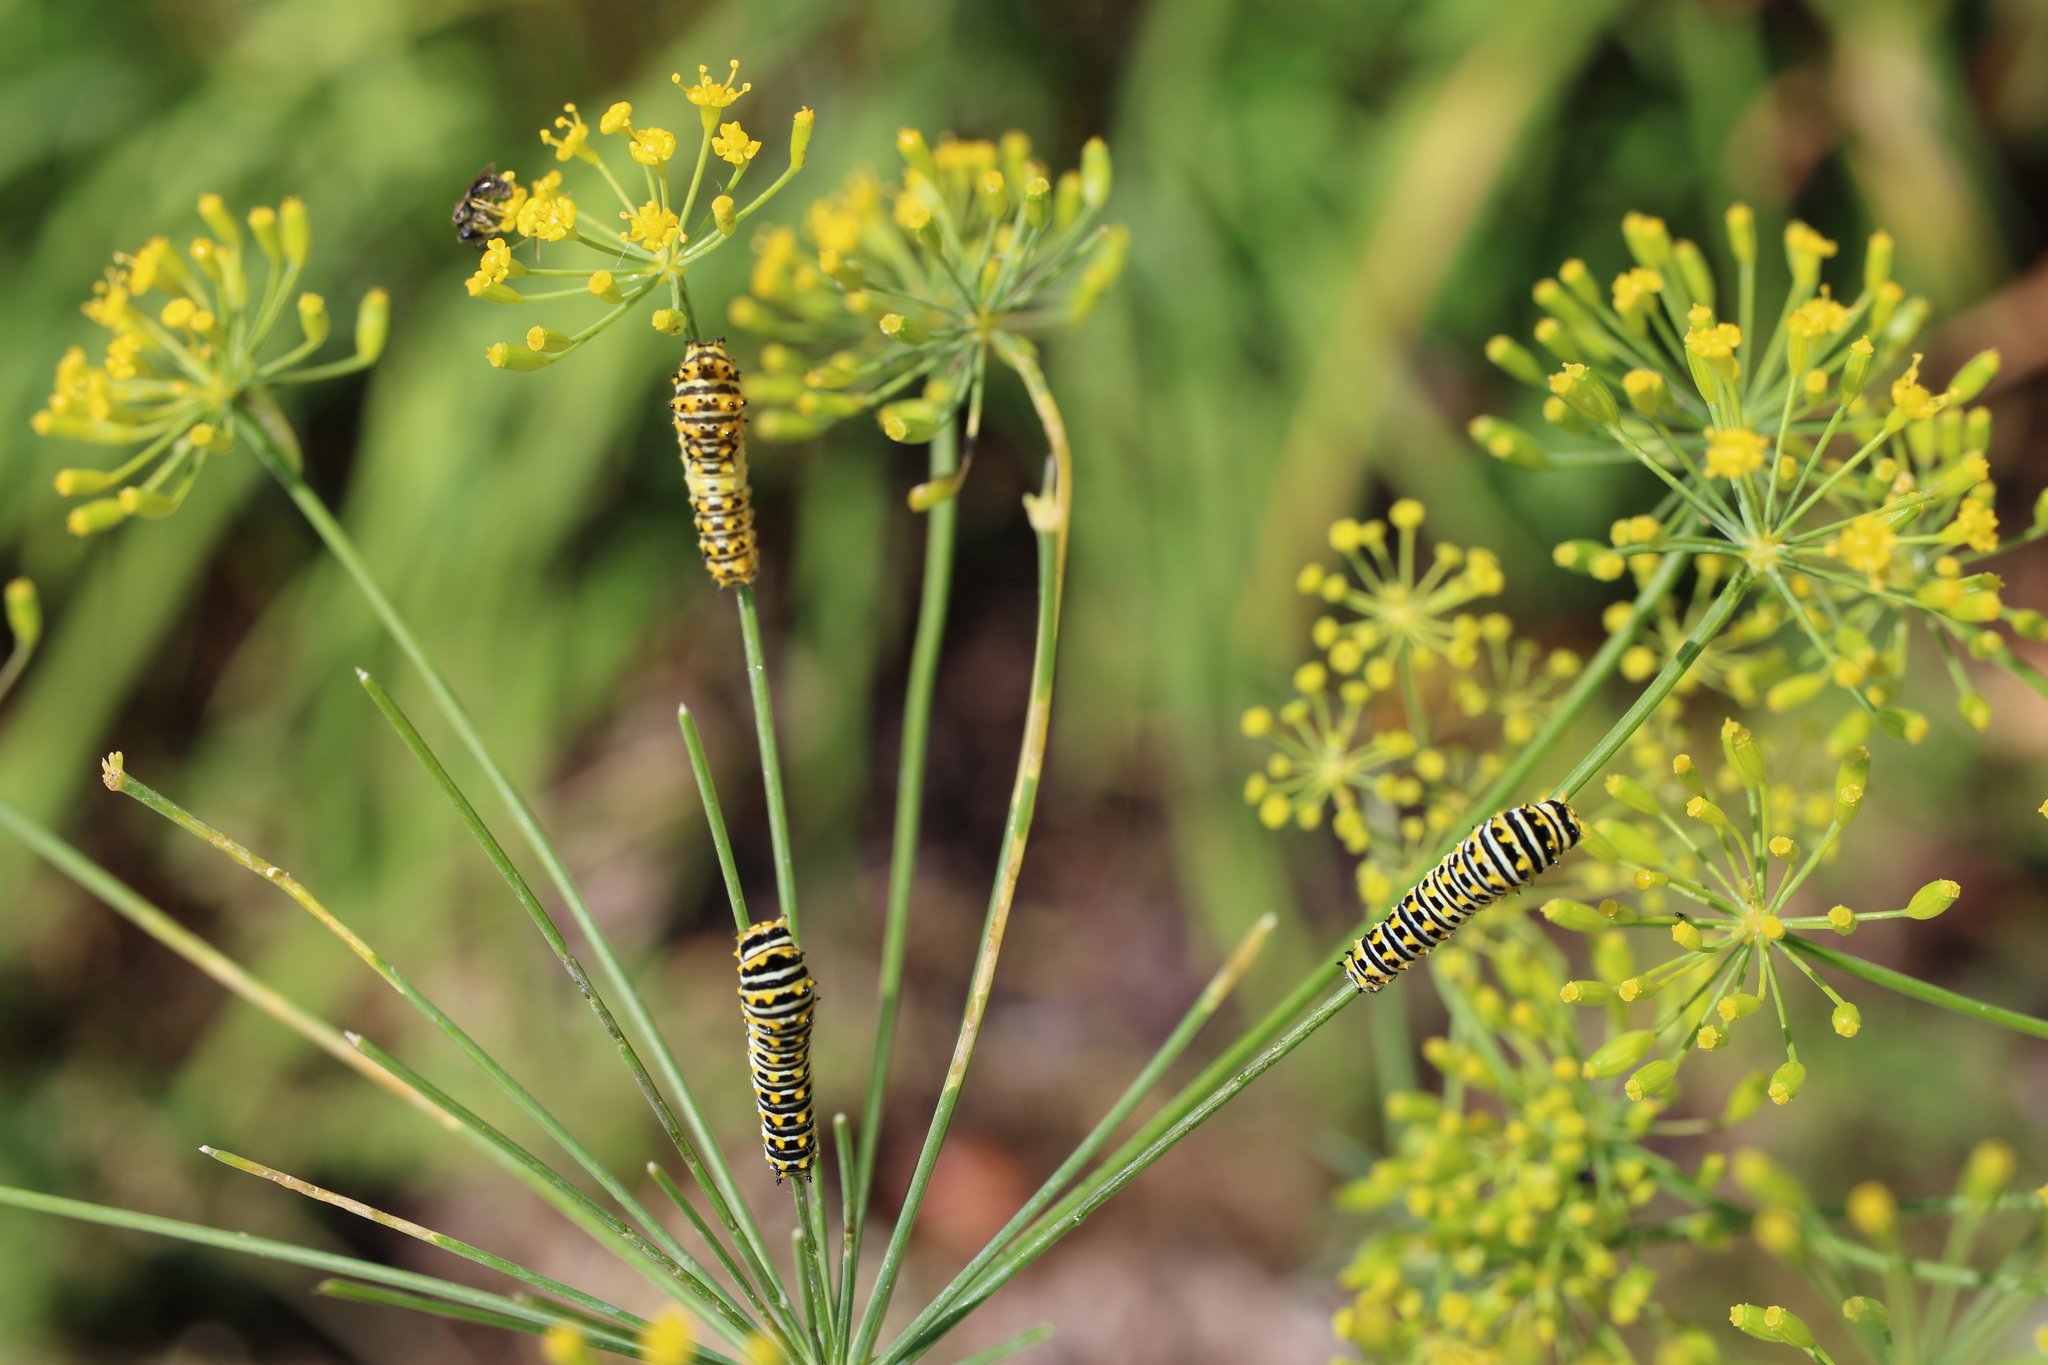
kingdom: Animalia
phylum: Arthropoda
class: Insecta
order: Lepidoptera
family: Papilionidae
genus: Papilio
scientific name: Papilio polyxenes
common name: Black swallowtail
